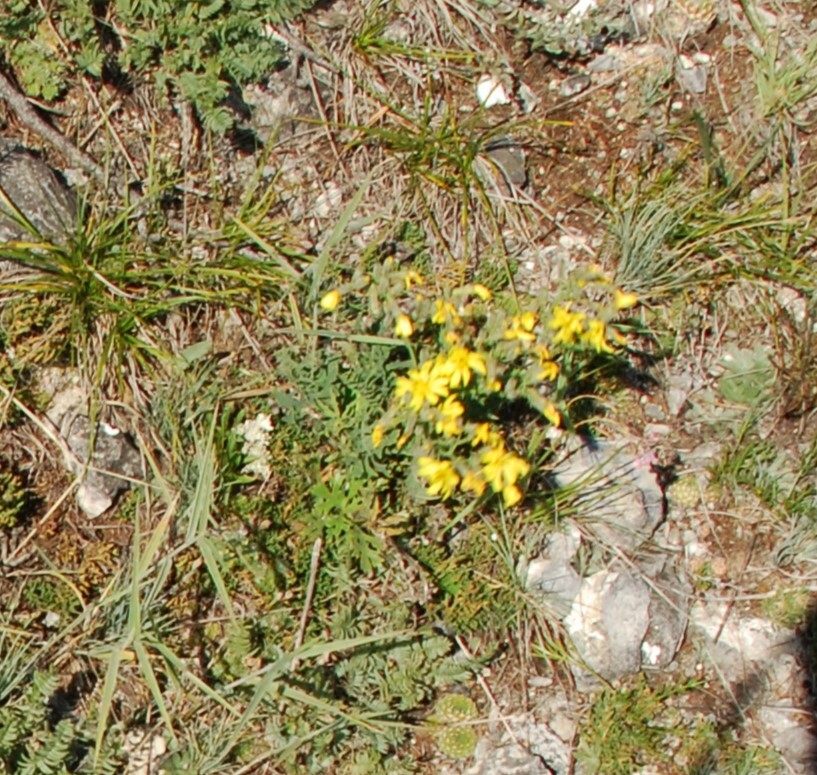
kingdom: Plantae
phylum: Tracheophyta
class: Magnoliopsida
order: Asterales
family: Asteraceae
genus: Crepidiastrum
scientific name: Crepidiastrum tenuifolium
